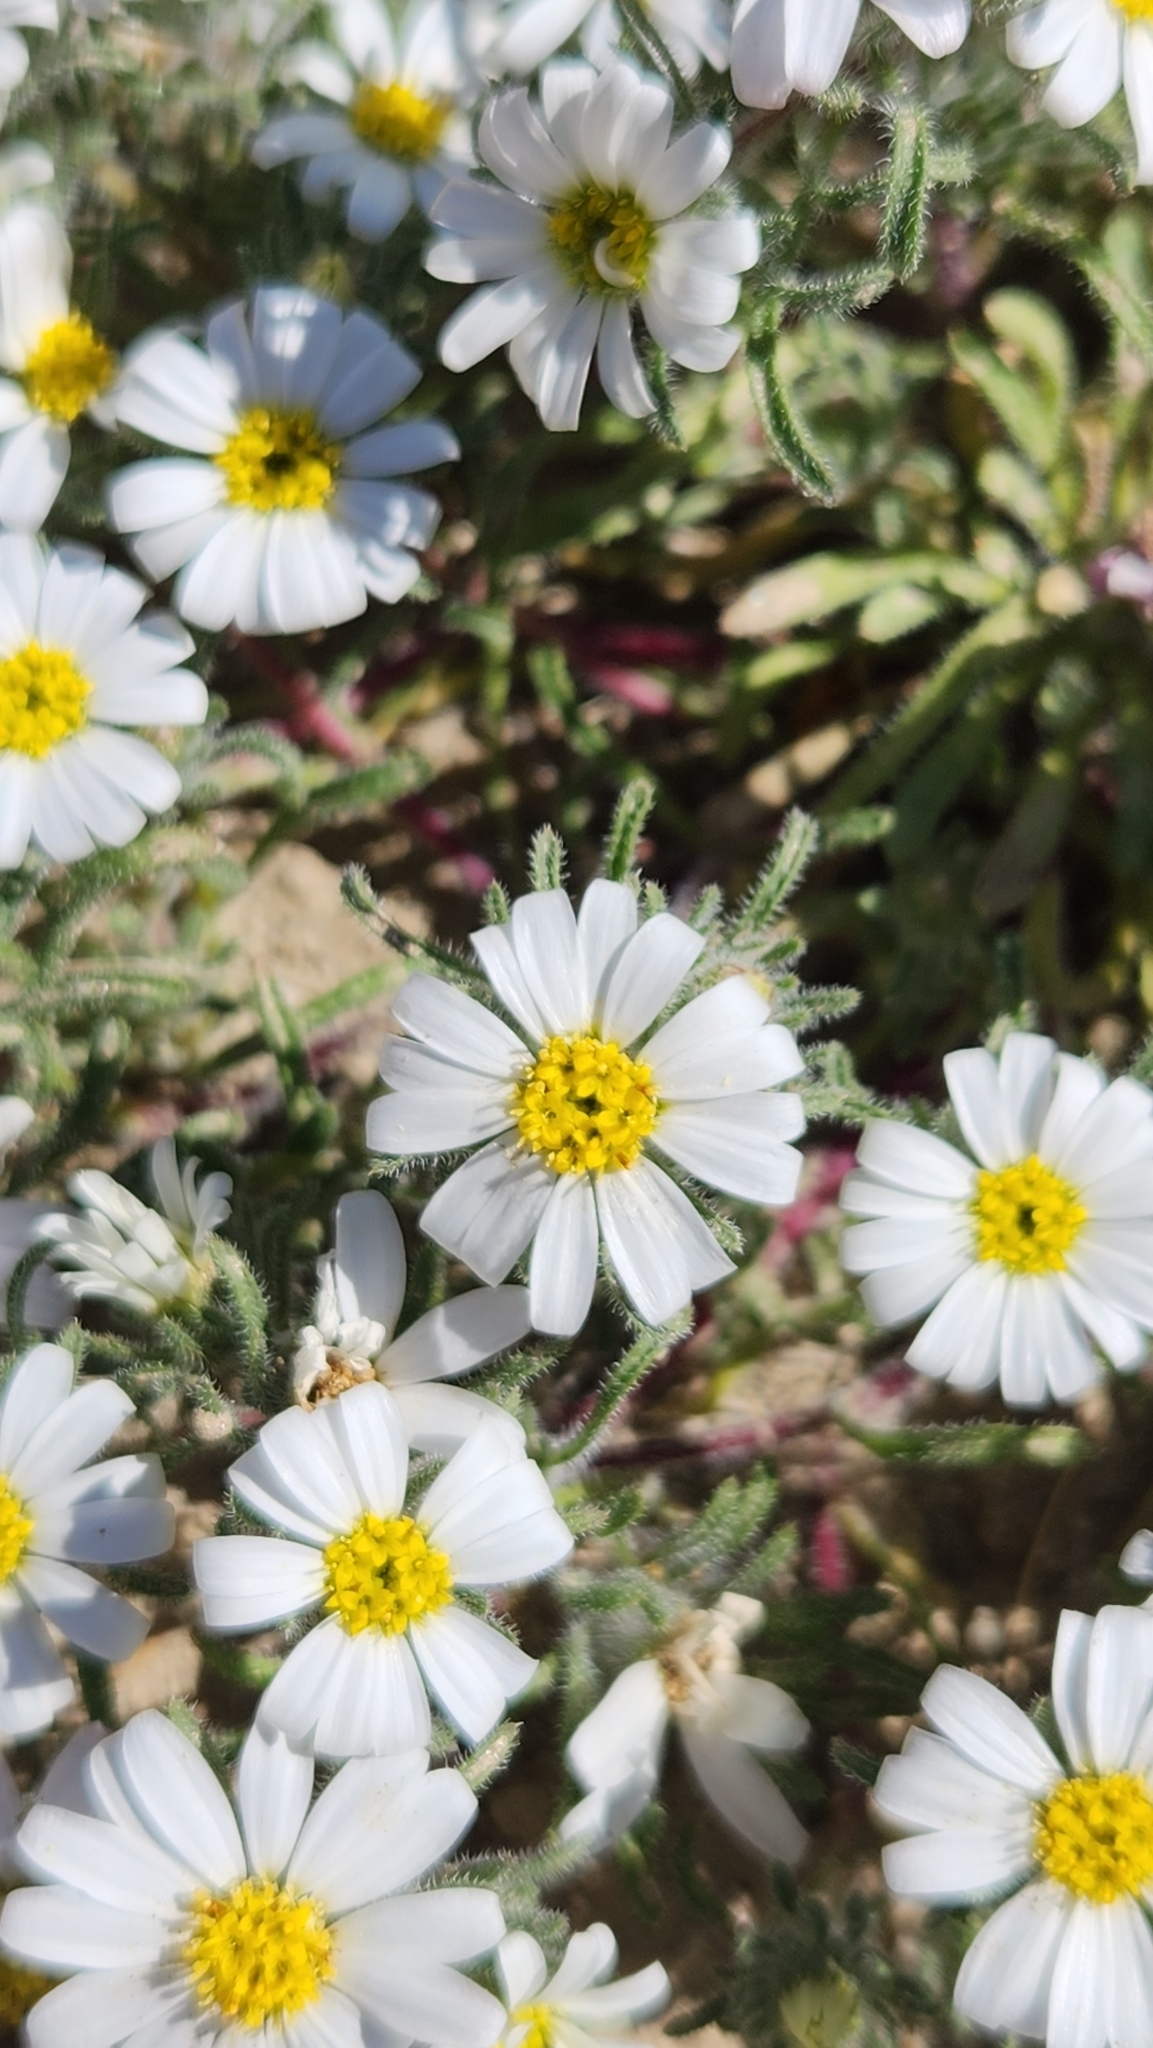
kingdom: Plantae
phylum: Tracheophyta
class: Magnoliopsida
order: Asterales
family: Asteraceae
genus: Monoptilon
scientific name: Monoptilon bellioides
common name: Bristly desertstar
